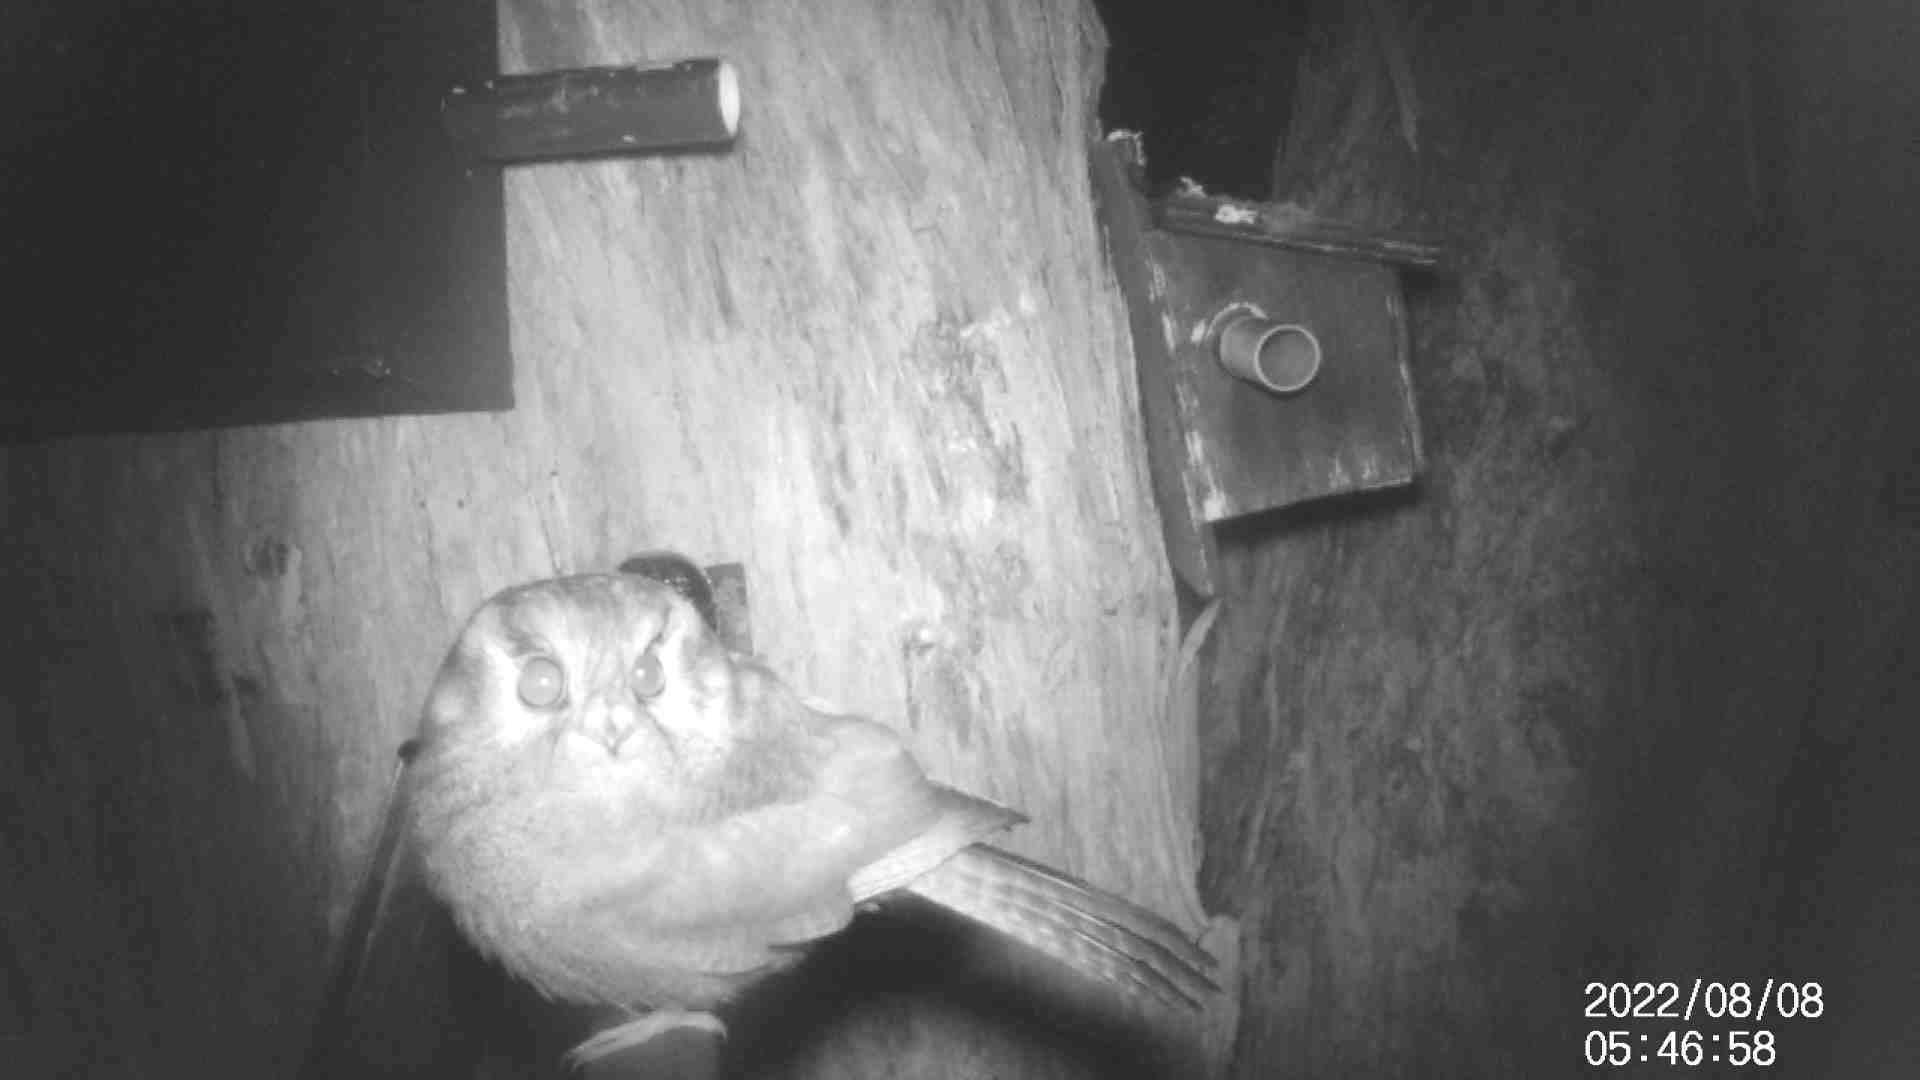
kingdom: Animalia
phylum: Chordata
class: Aves
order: Apodiformes
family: Aegothelidae
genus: Aegotheles
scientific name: Aegotheles cristatus
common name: Australian owlet-nightjar
